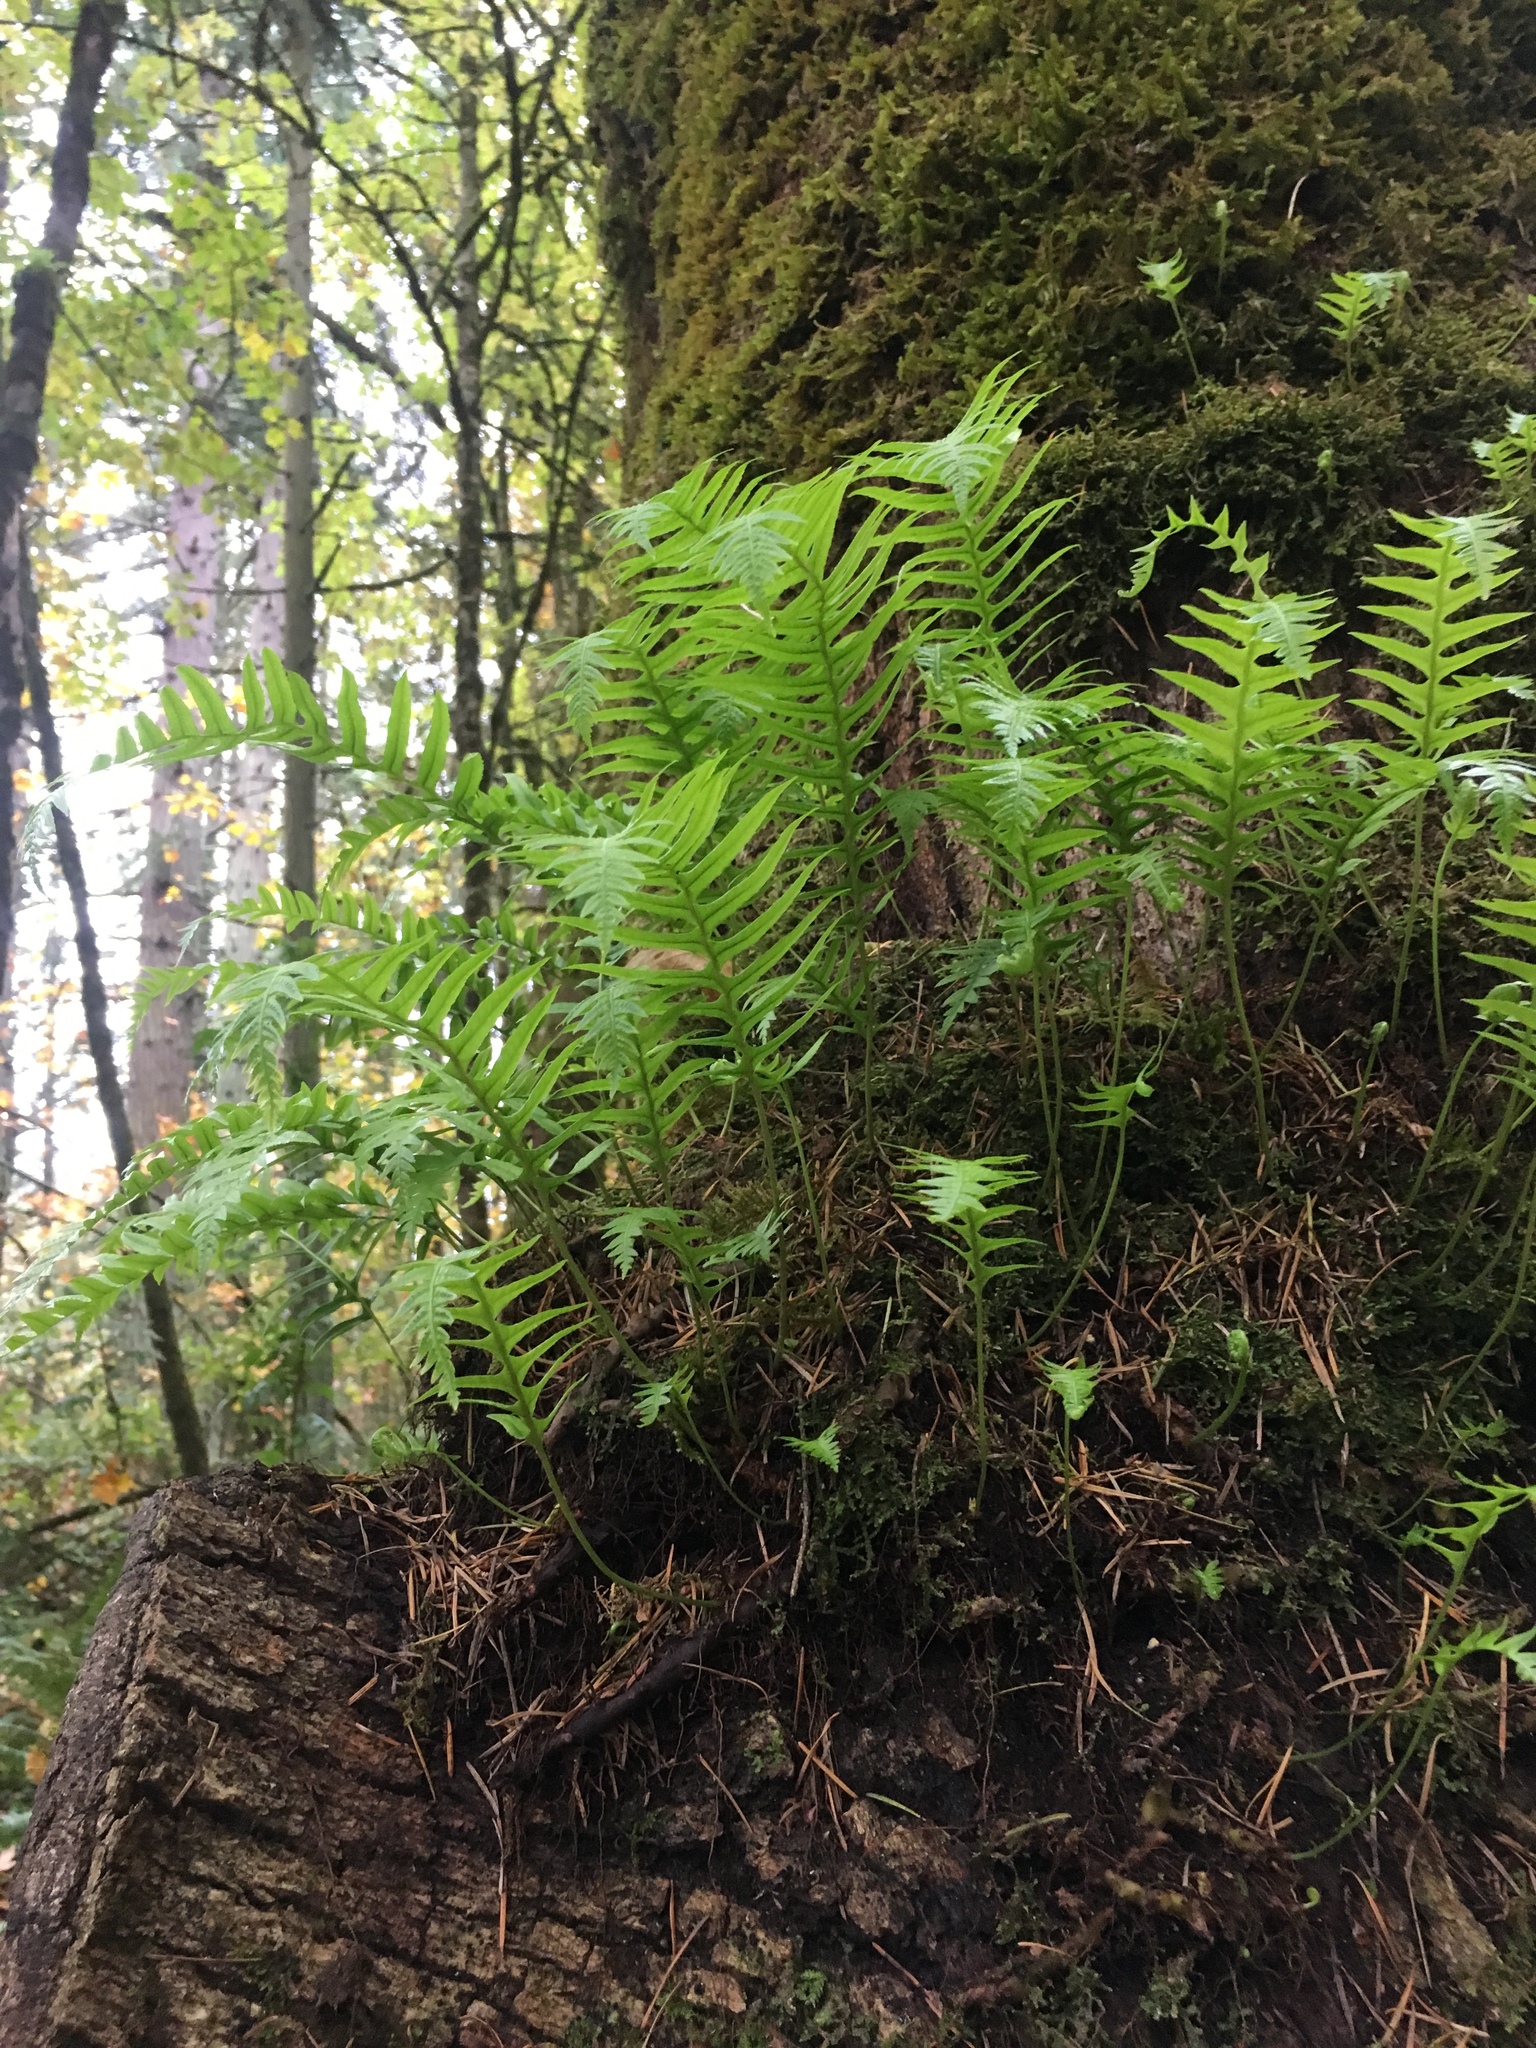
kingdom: Plantae
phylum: Tracheophyta
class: Polypodiopsida
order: Polypodiales
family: Polypodiaceae
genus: Polypodium
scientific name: Polypodium glycyrrhiza
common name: Licorice fern
